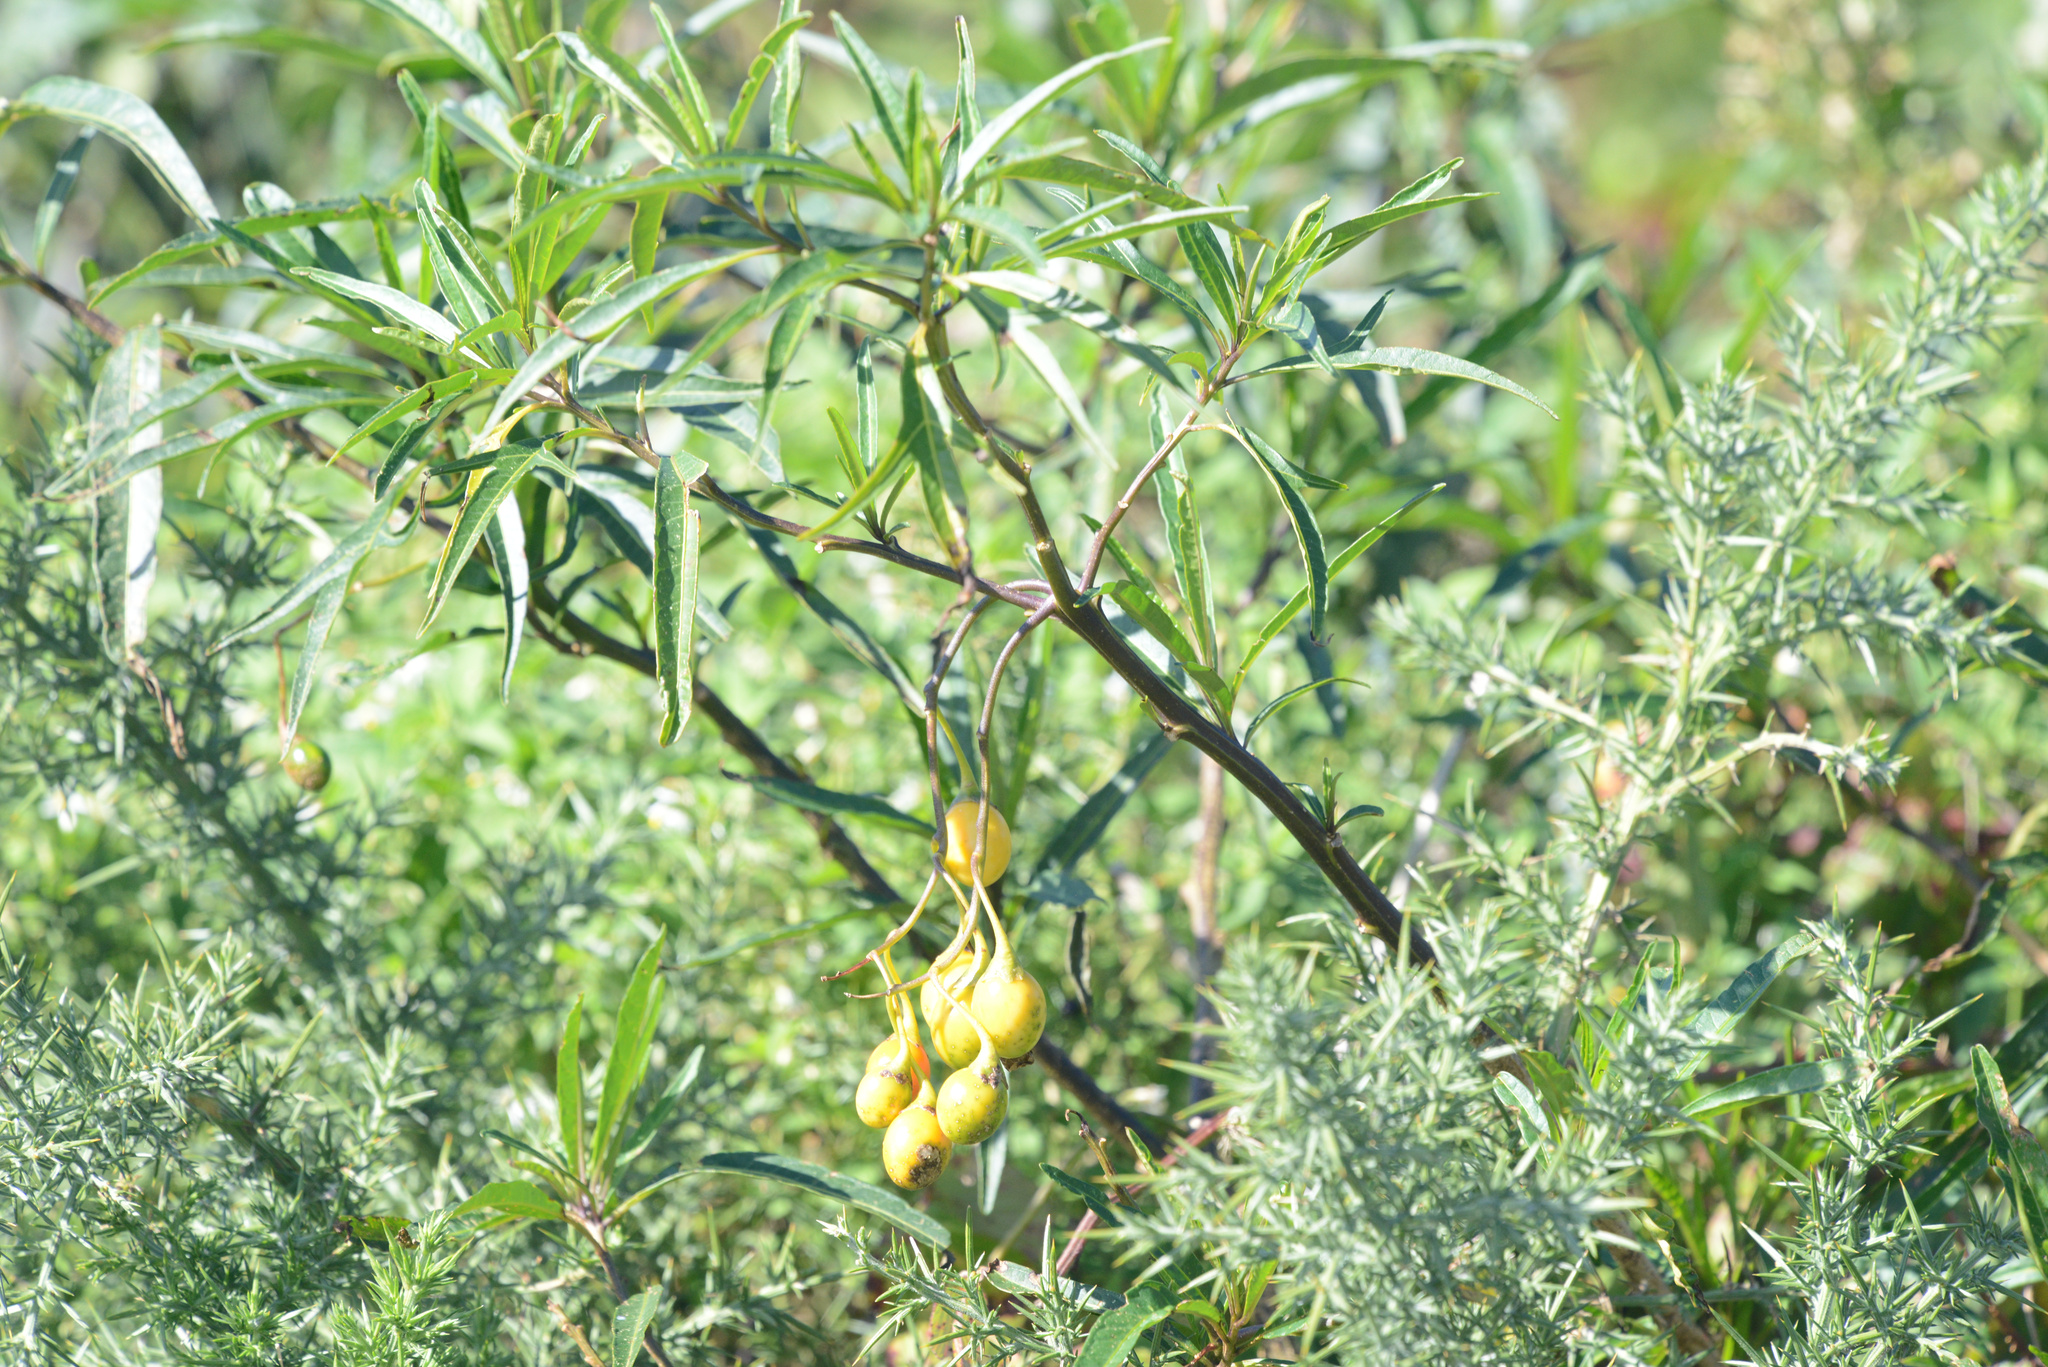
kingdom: Plantae
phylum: Tracheophyta
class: Magnoliopsida
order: Solanales
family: Solanaceae
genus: Solanum
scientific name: Solanum laciniatum
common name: Kangaroo-apple
